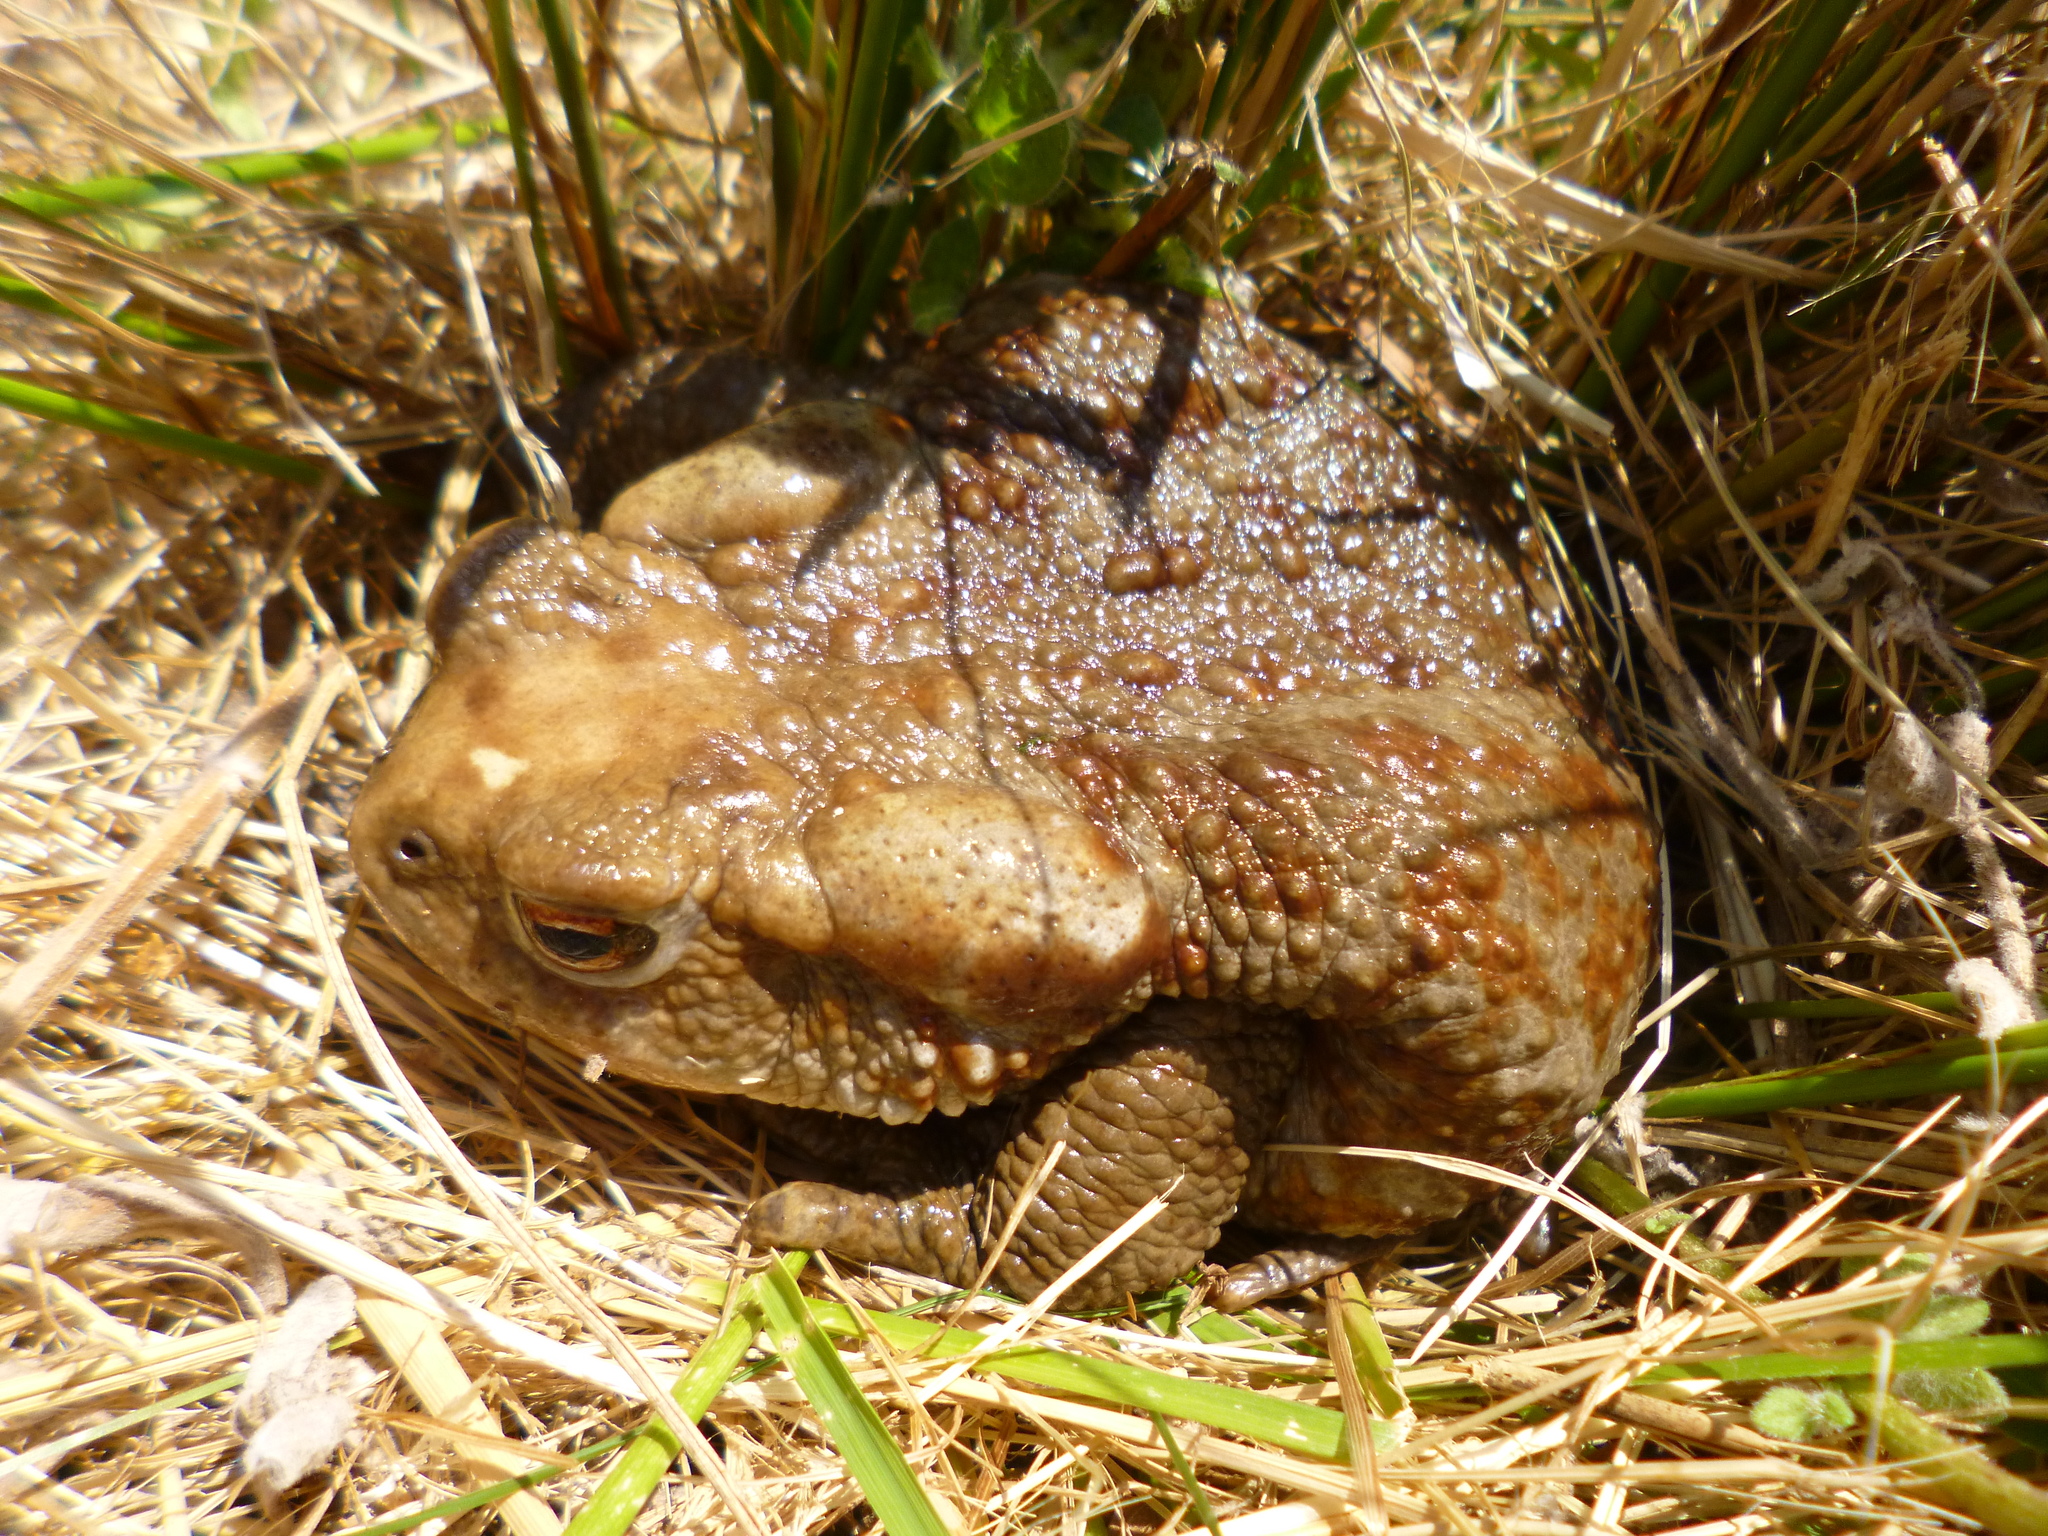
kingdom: Animalia
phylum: Chordata
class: Amphibia
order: Anura
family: Bufonidae
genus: Bufo
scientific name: Bufo bufo
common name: Common toad
